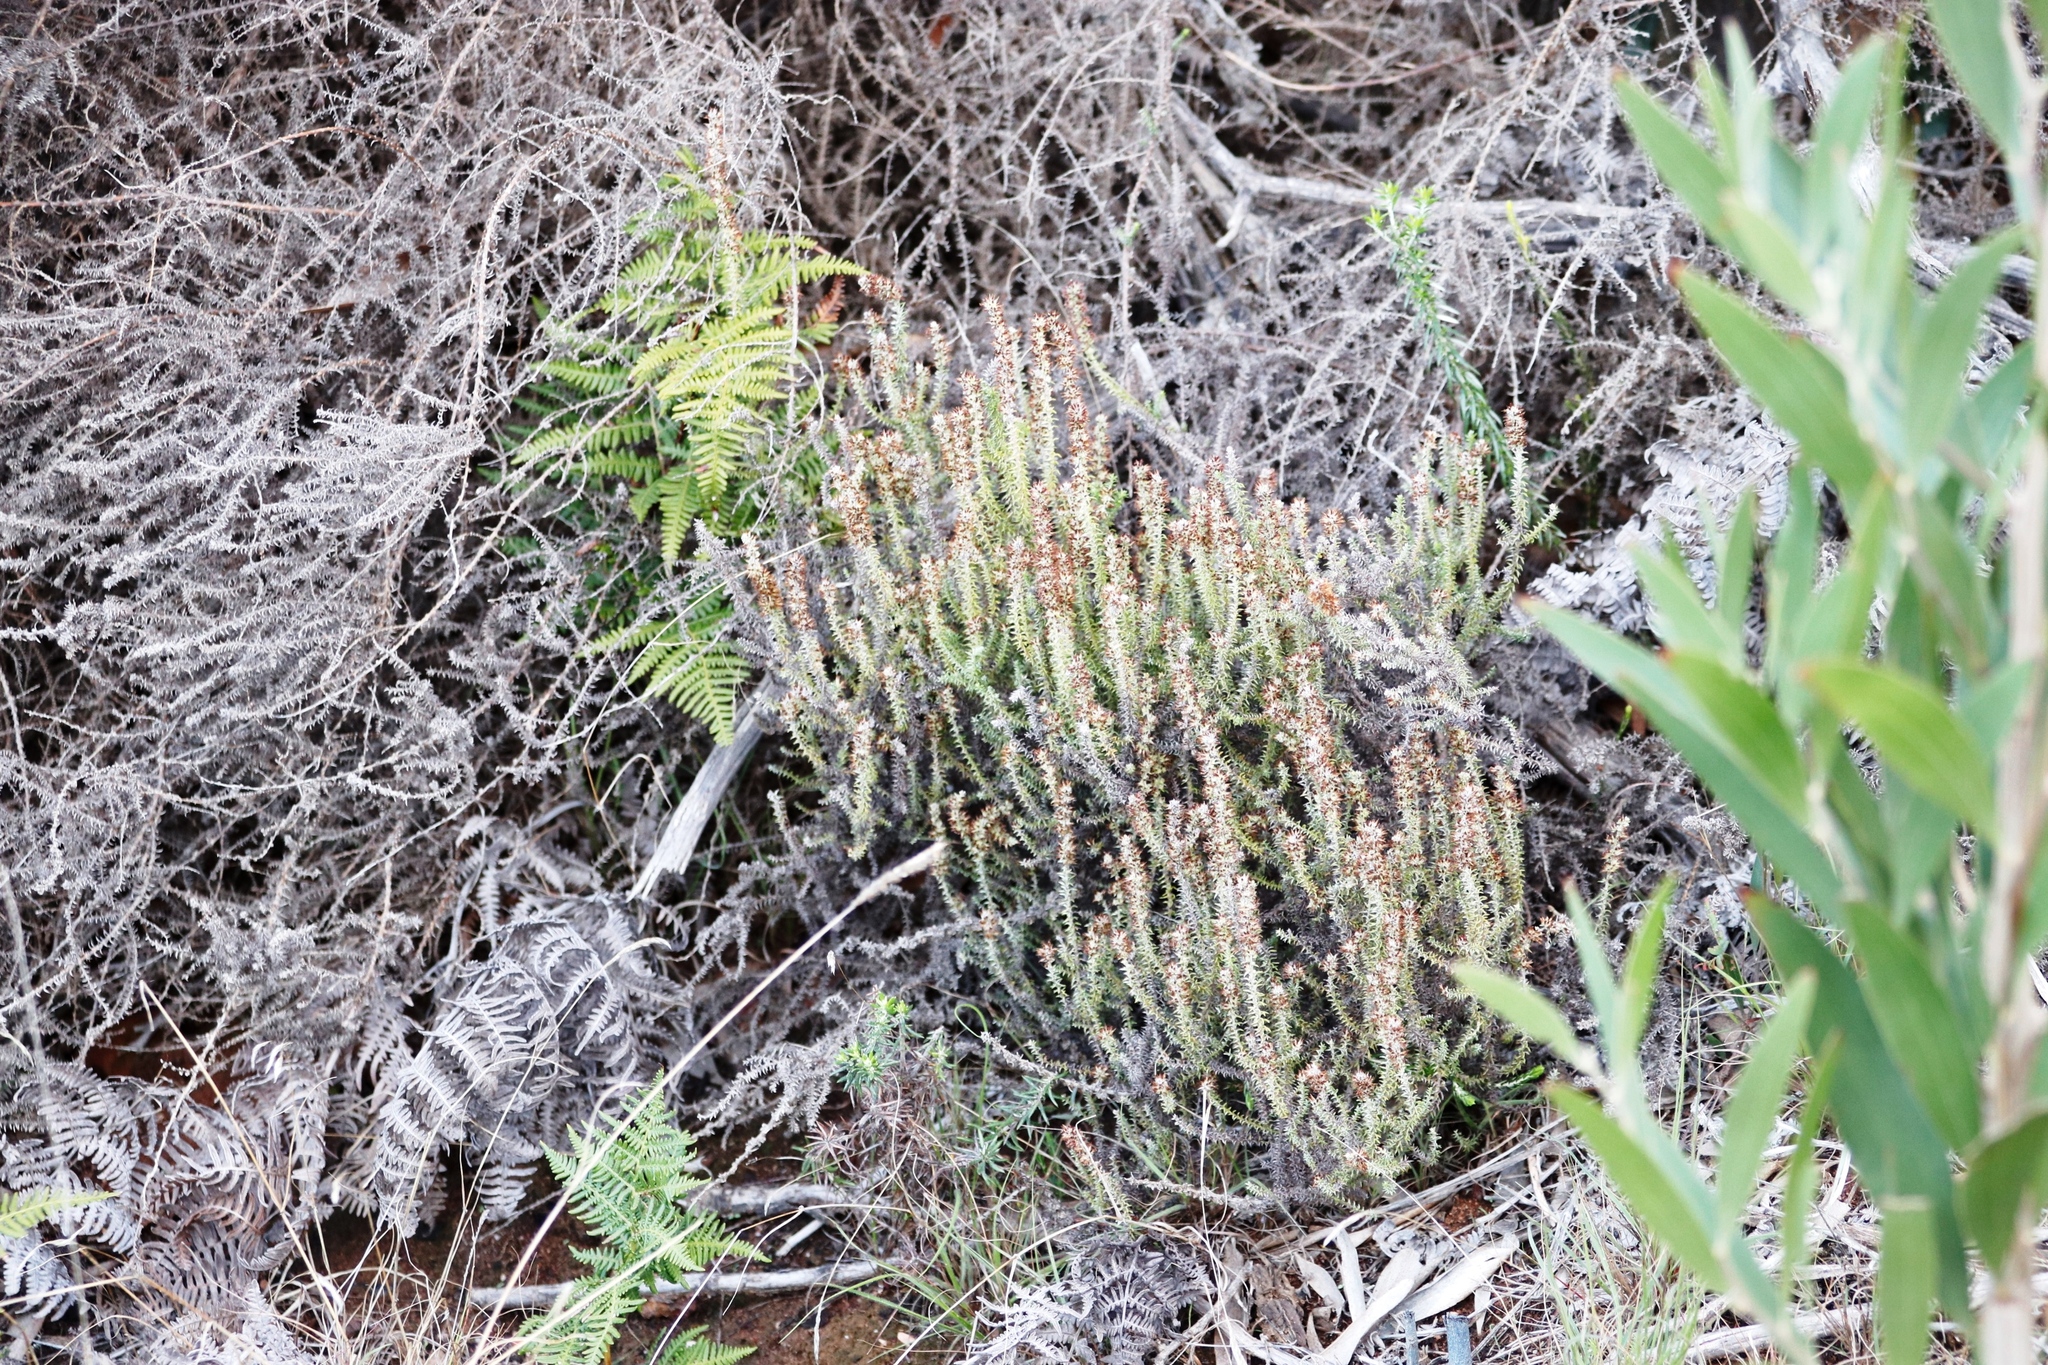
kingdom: Plantae
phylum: Tracheophyta
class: Magnoliopsida
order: Asterales
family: Asteraceae
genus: Seriphium
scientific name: Seriphium cinereum
